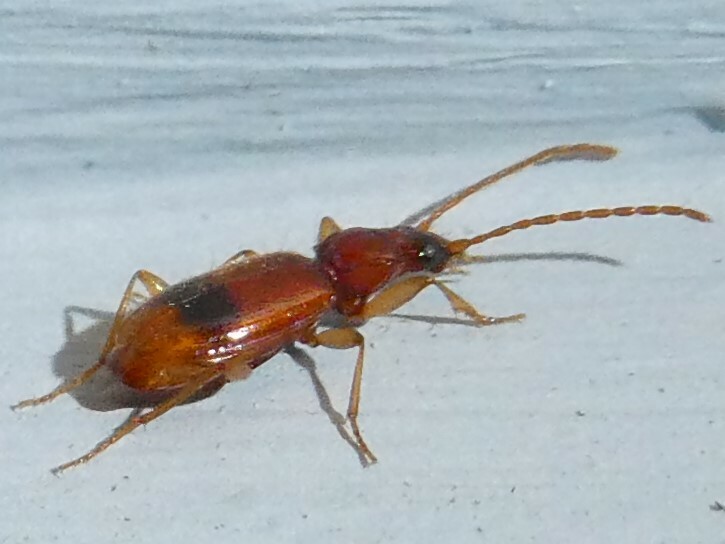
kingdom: Animalia
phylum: Arthropoda
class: Insecta
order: Coleoptera
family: Carabidae
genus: Blemus
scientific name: Blemus discus
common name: Discus riverbank ground beetle
